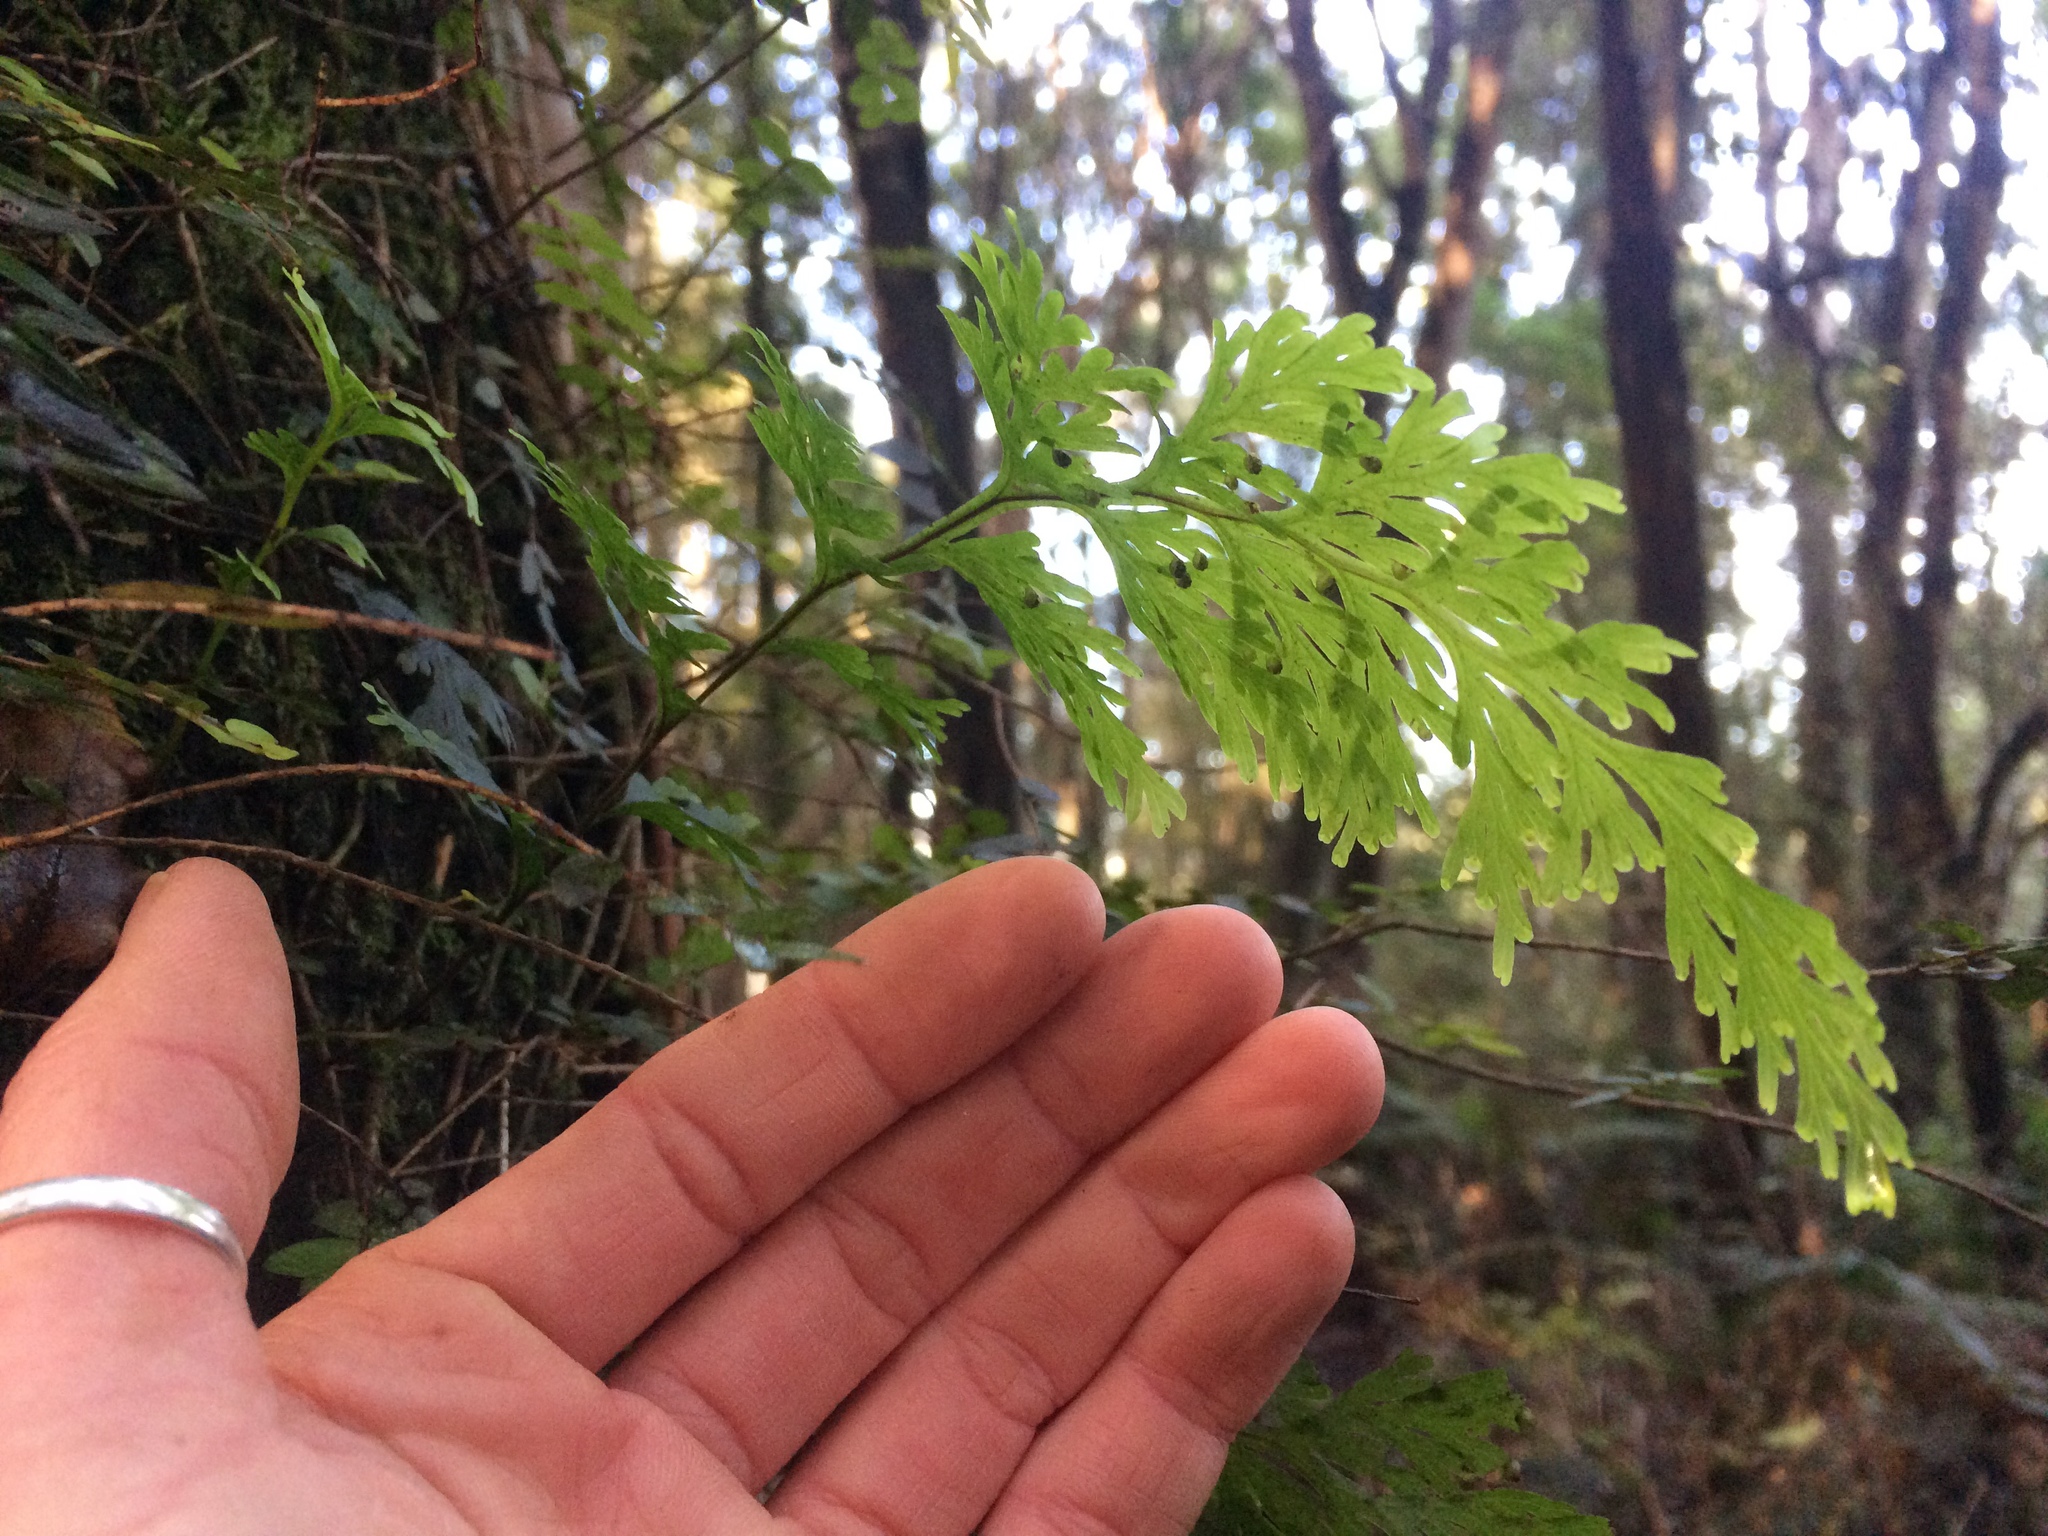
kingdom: Plantae
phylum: Tracheophyta
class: Polypodiopsida
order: Hymenophyllales
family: Hymenophyllaceae
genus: Hymenophyllum
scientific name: Hymenophyllum dilatatum
